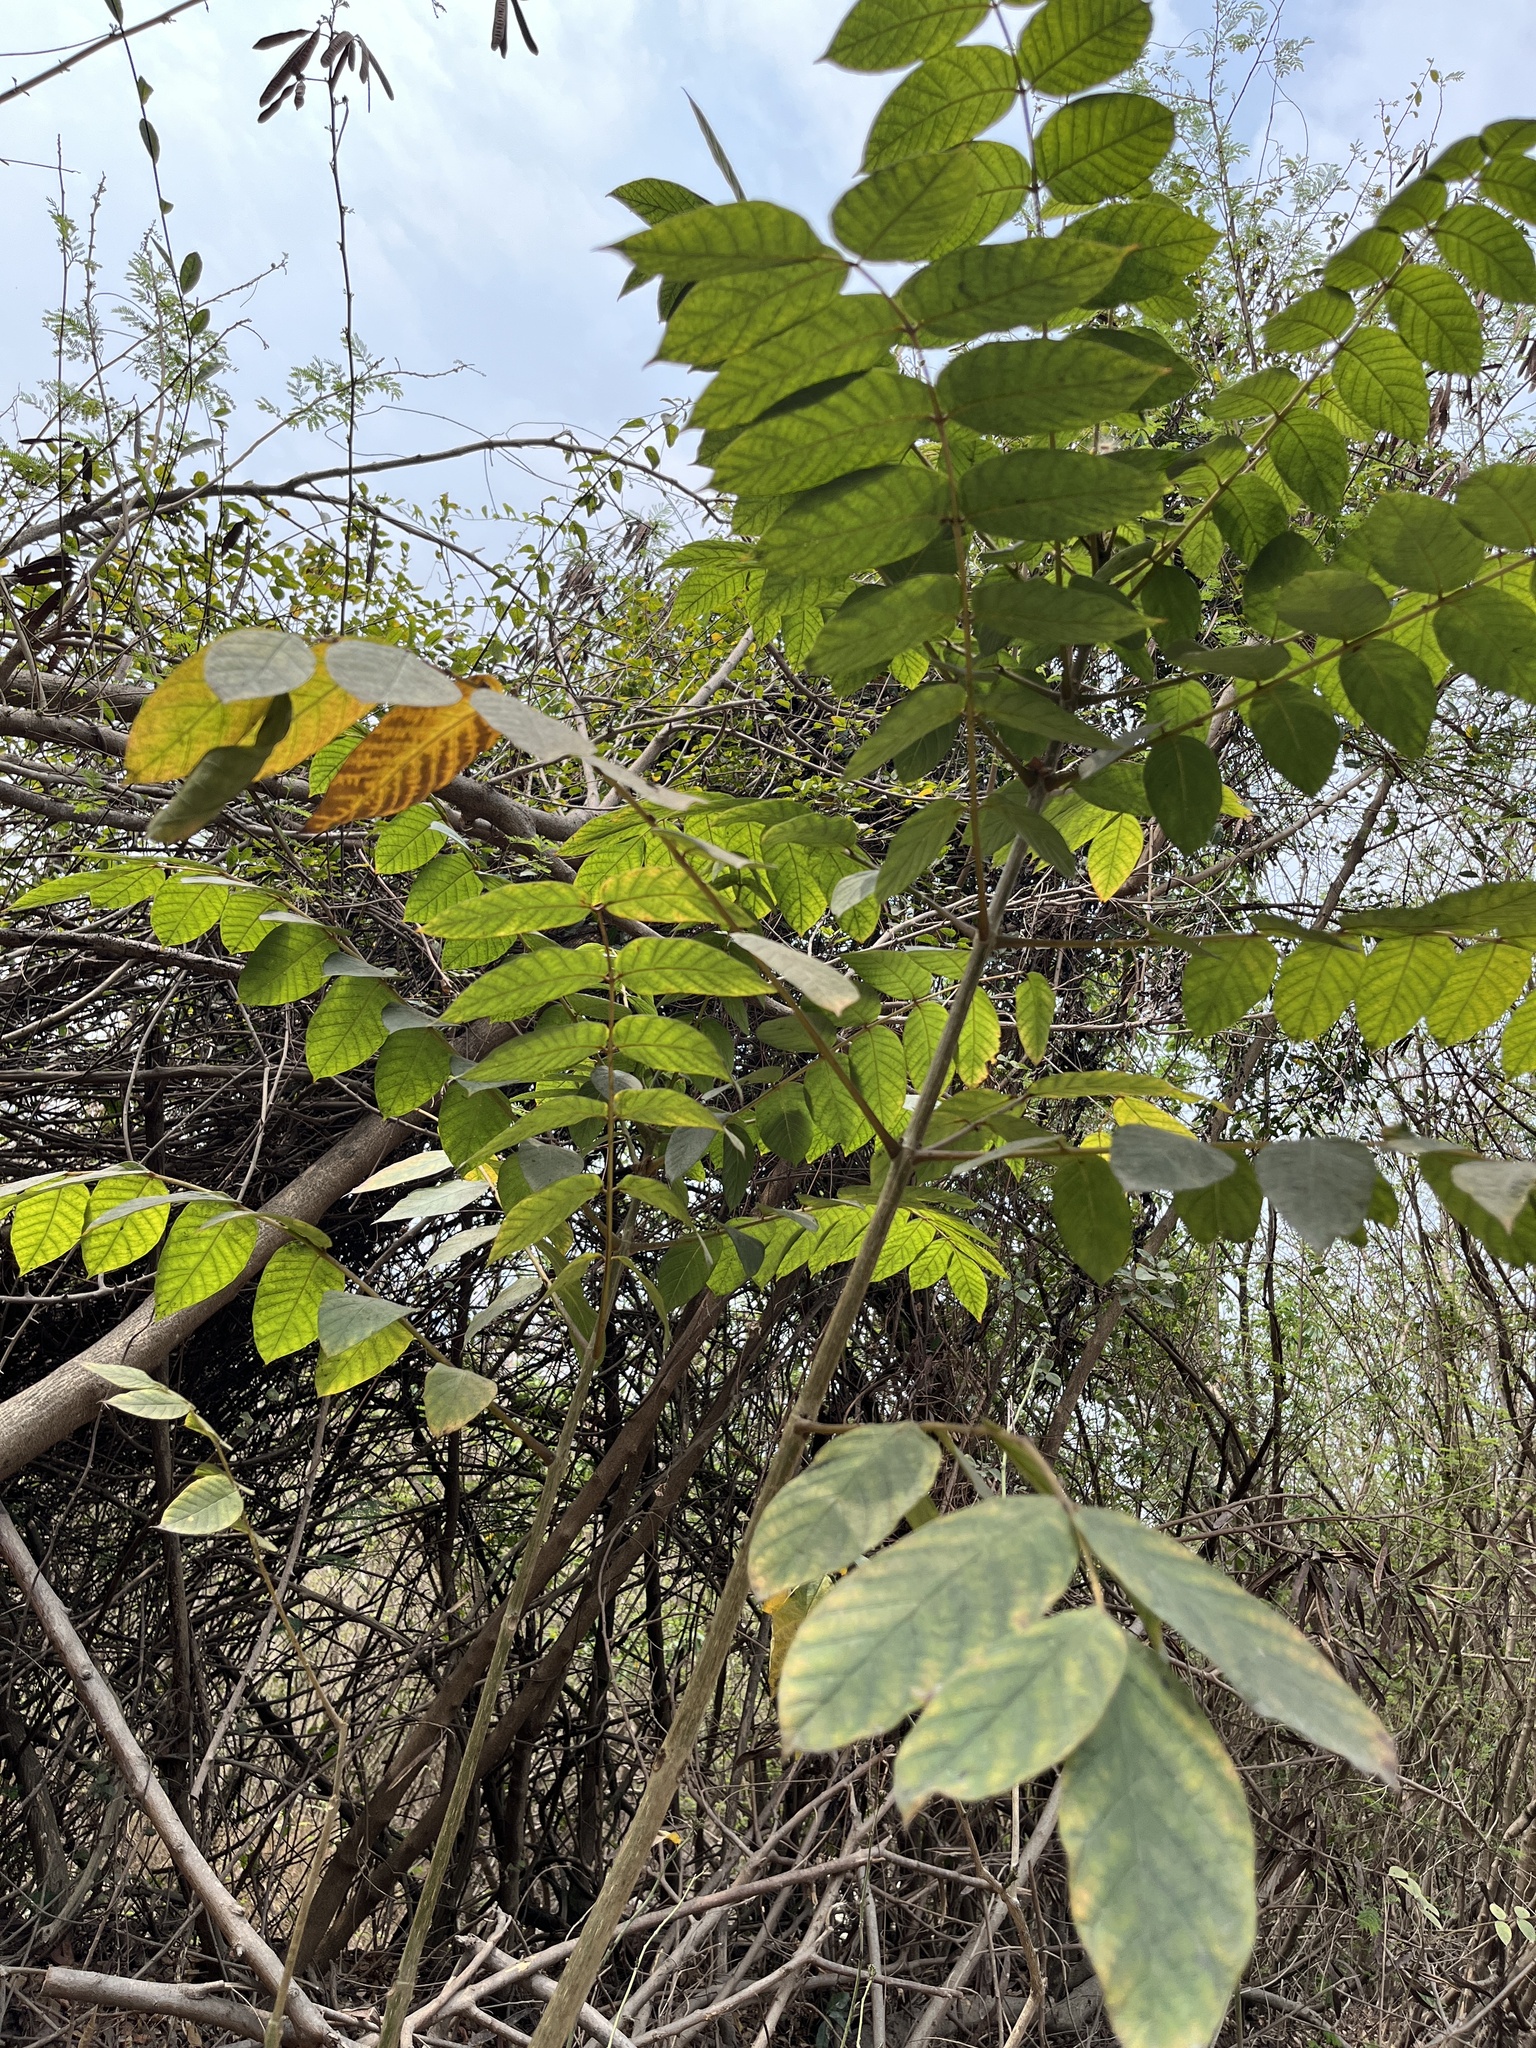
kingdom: Plantae
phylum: Tracheophyta
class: Magnoliopsida
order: Lamiales
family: Bignoniaceae
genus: Spathodea
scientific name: Spathodea campanulata
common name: African tuliptree
